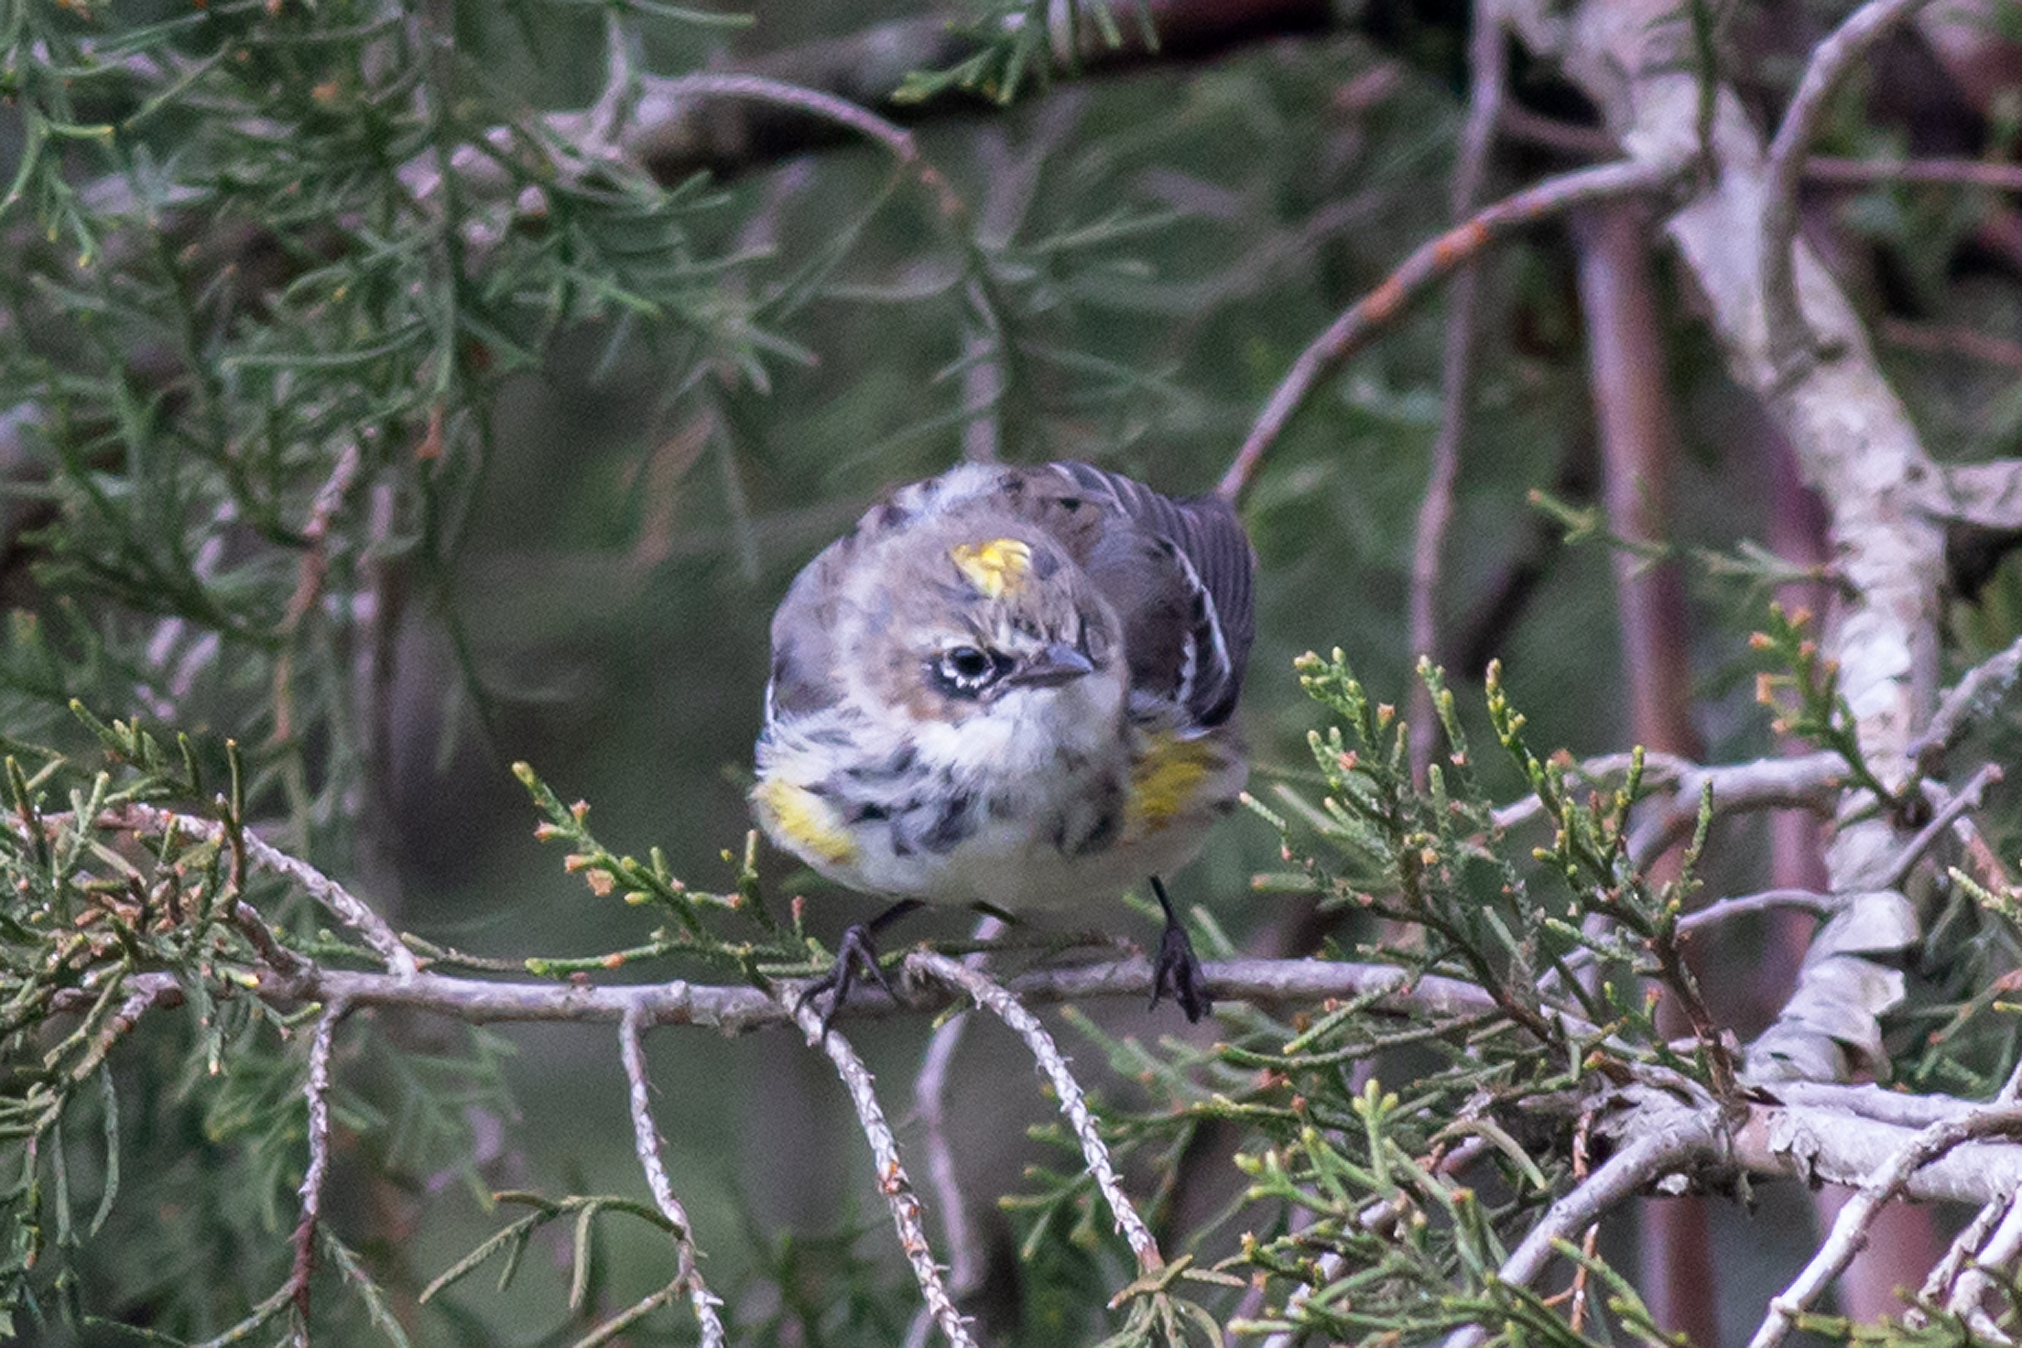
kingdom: Animalia
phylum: Chordata
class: Aves
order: Passeriformes
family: Parulidae
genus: Setophaga
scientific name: Setophaga coronata
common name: Myrtle warbler
